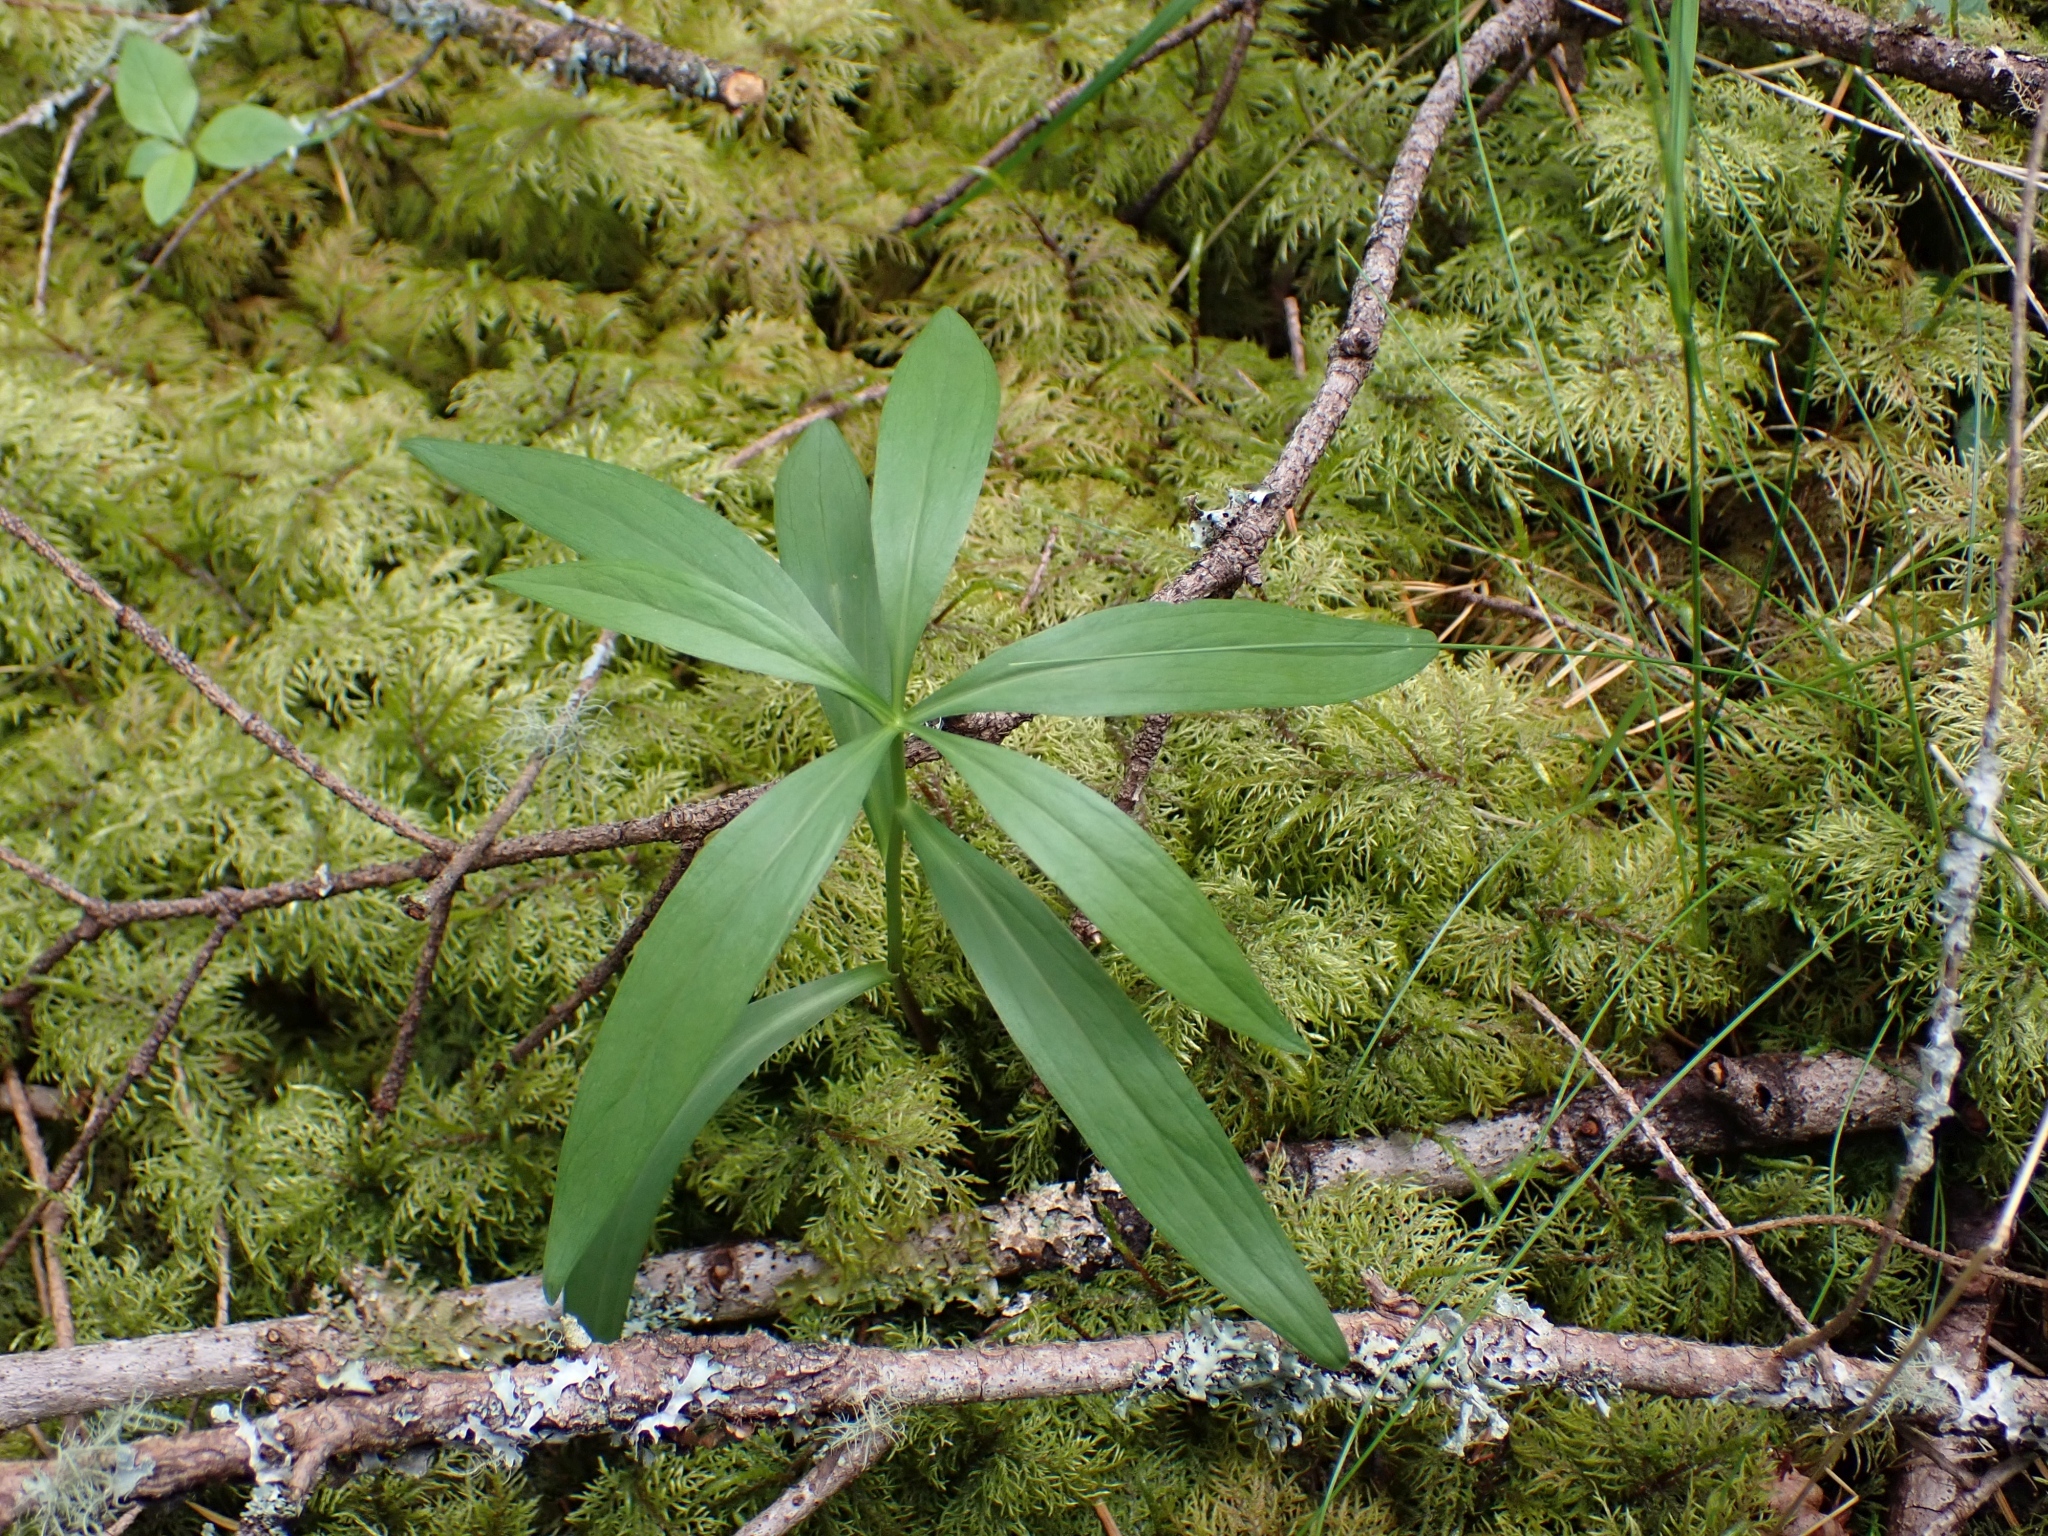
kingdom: Plantae
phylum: Tracheophyta
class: Liliopsida
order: Liliales
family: Liliaceae
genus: Lilium
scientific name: Lilium columbianum
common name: Columbia lily
